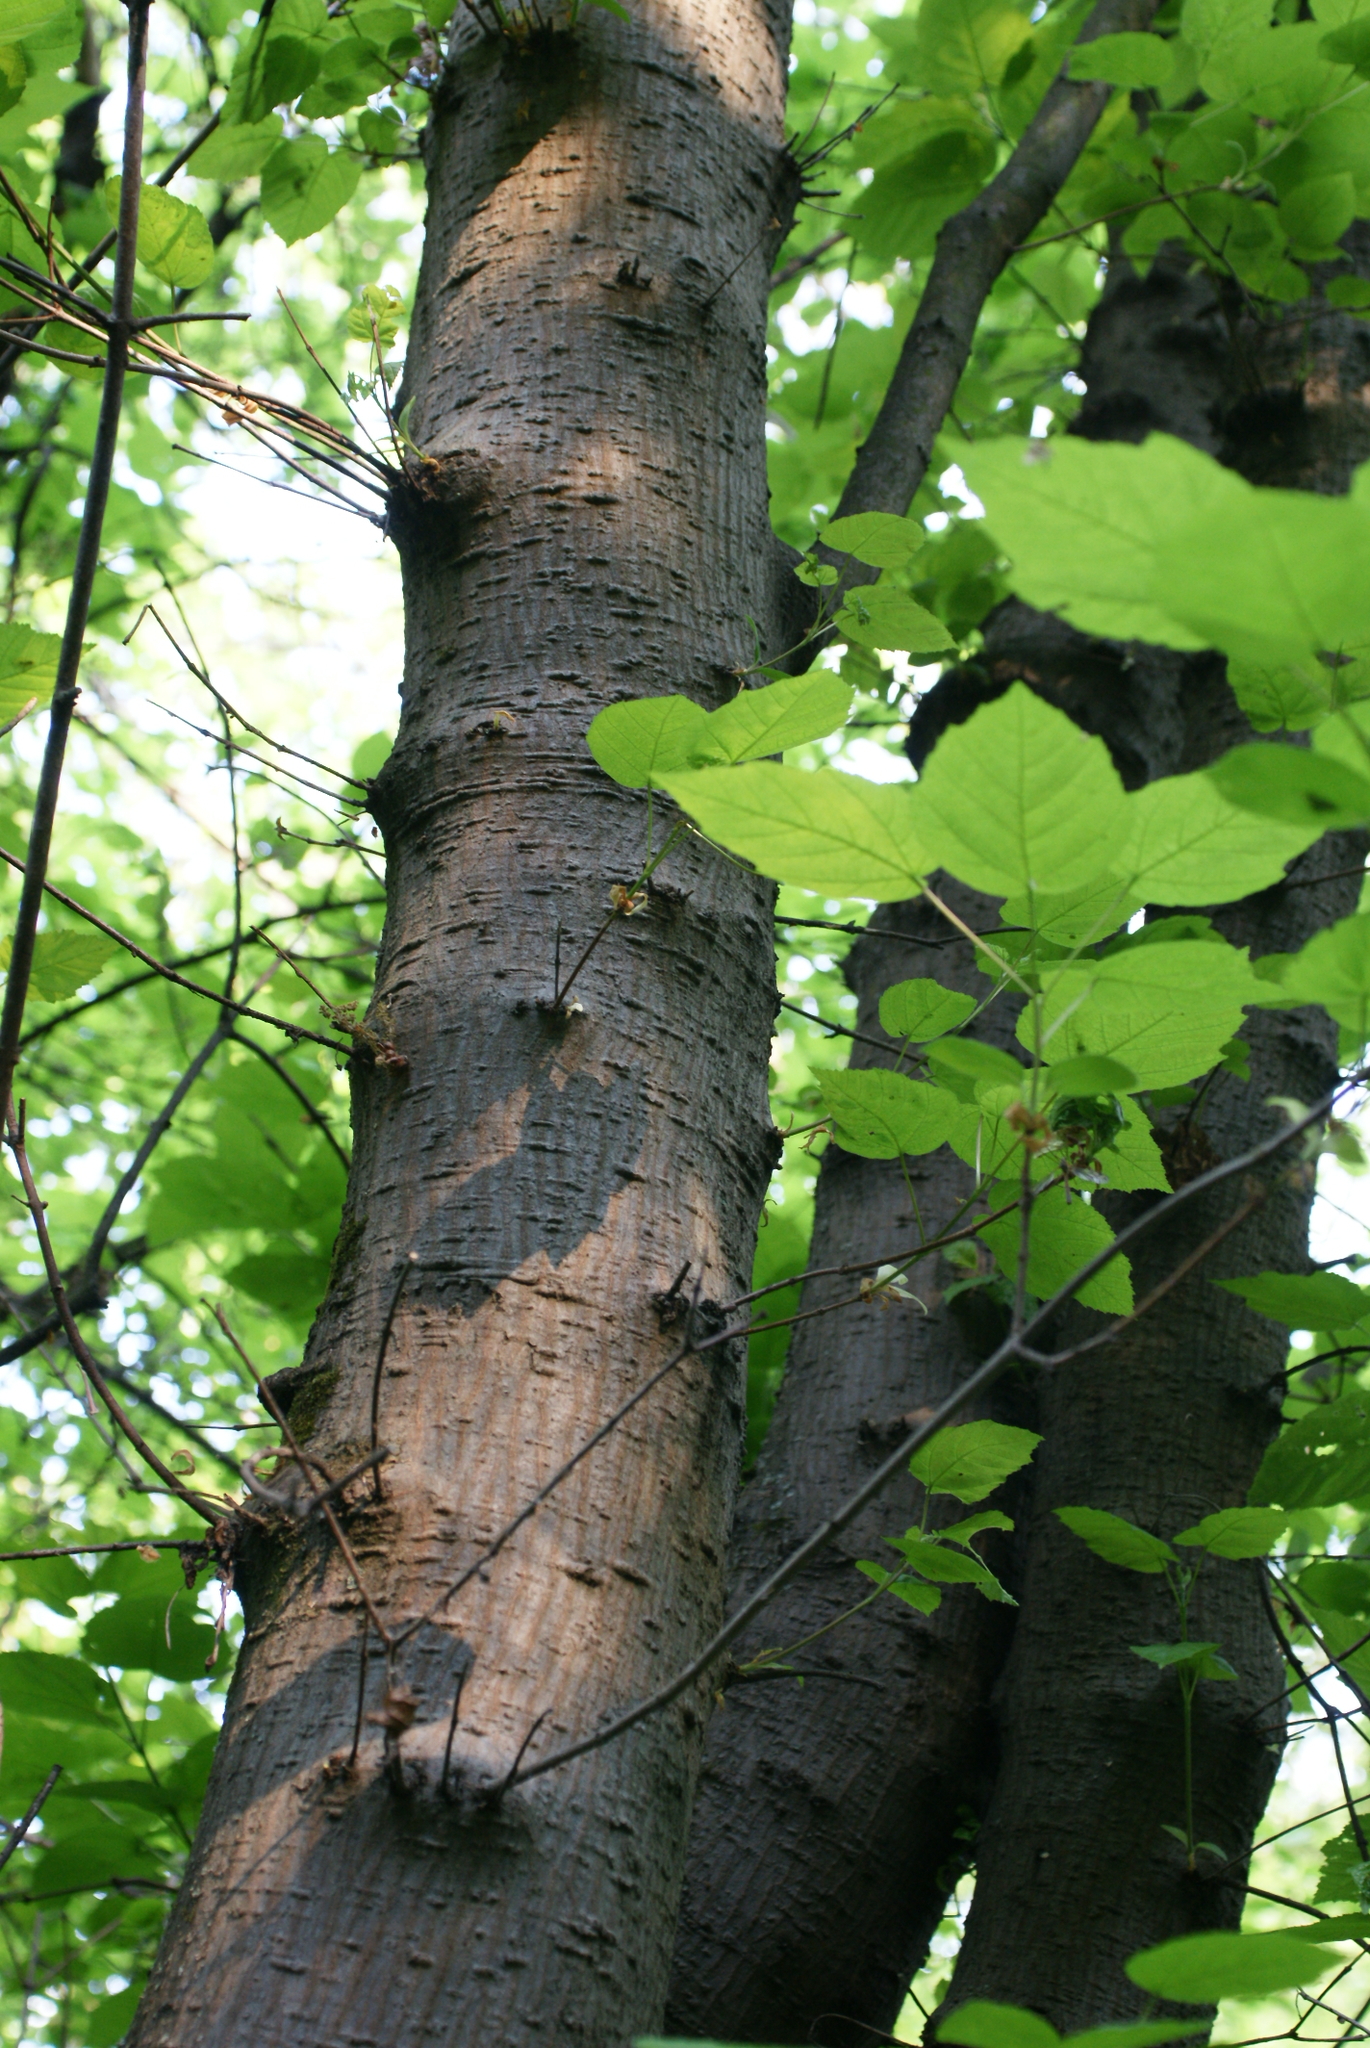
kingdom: Plantae
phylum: Tracheophyta
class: Magnoliopsida
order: Sapindales
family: Sapindaceae
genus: Acer
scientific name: Acer tataricum
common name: Tartar maple
